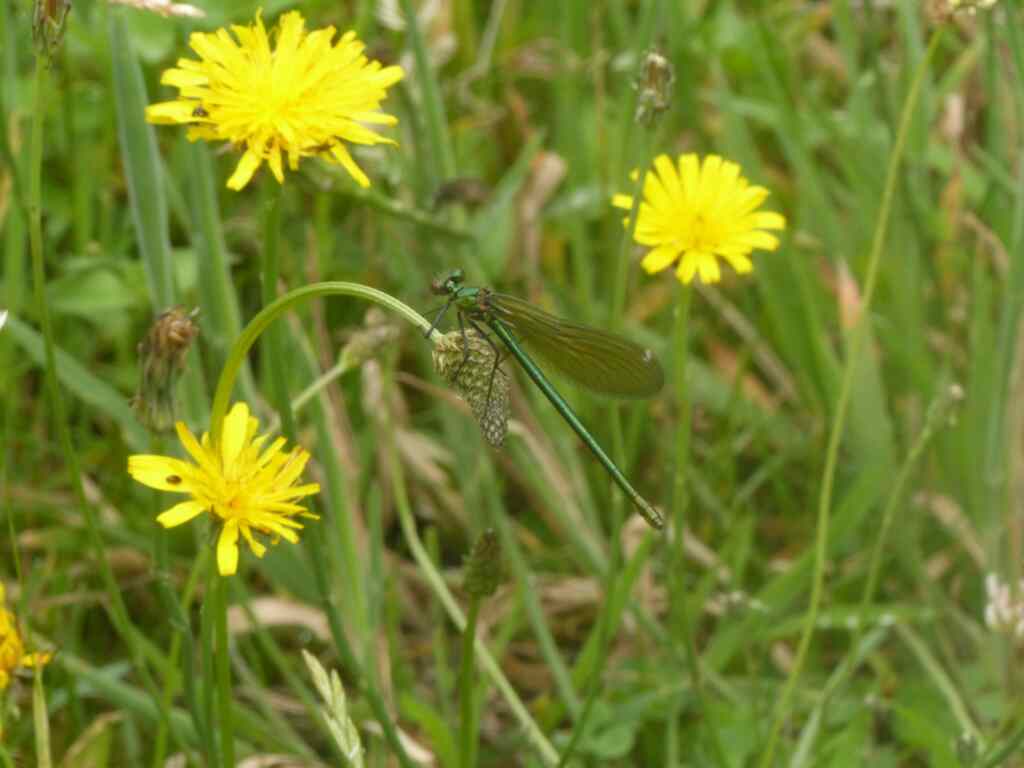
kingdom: Animalia
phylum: Arthropoda
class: Insecta
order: Odonata
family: Calopterygidae
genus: Calopteryx
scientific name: Calopteryx splendens
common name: Banded demoiselle
